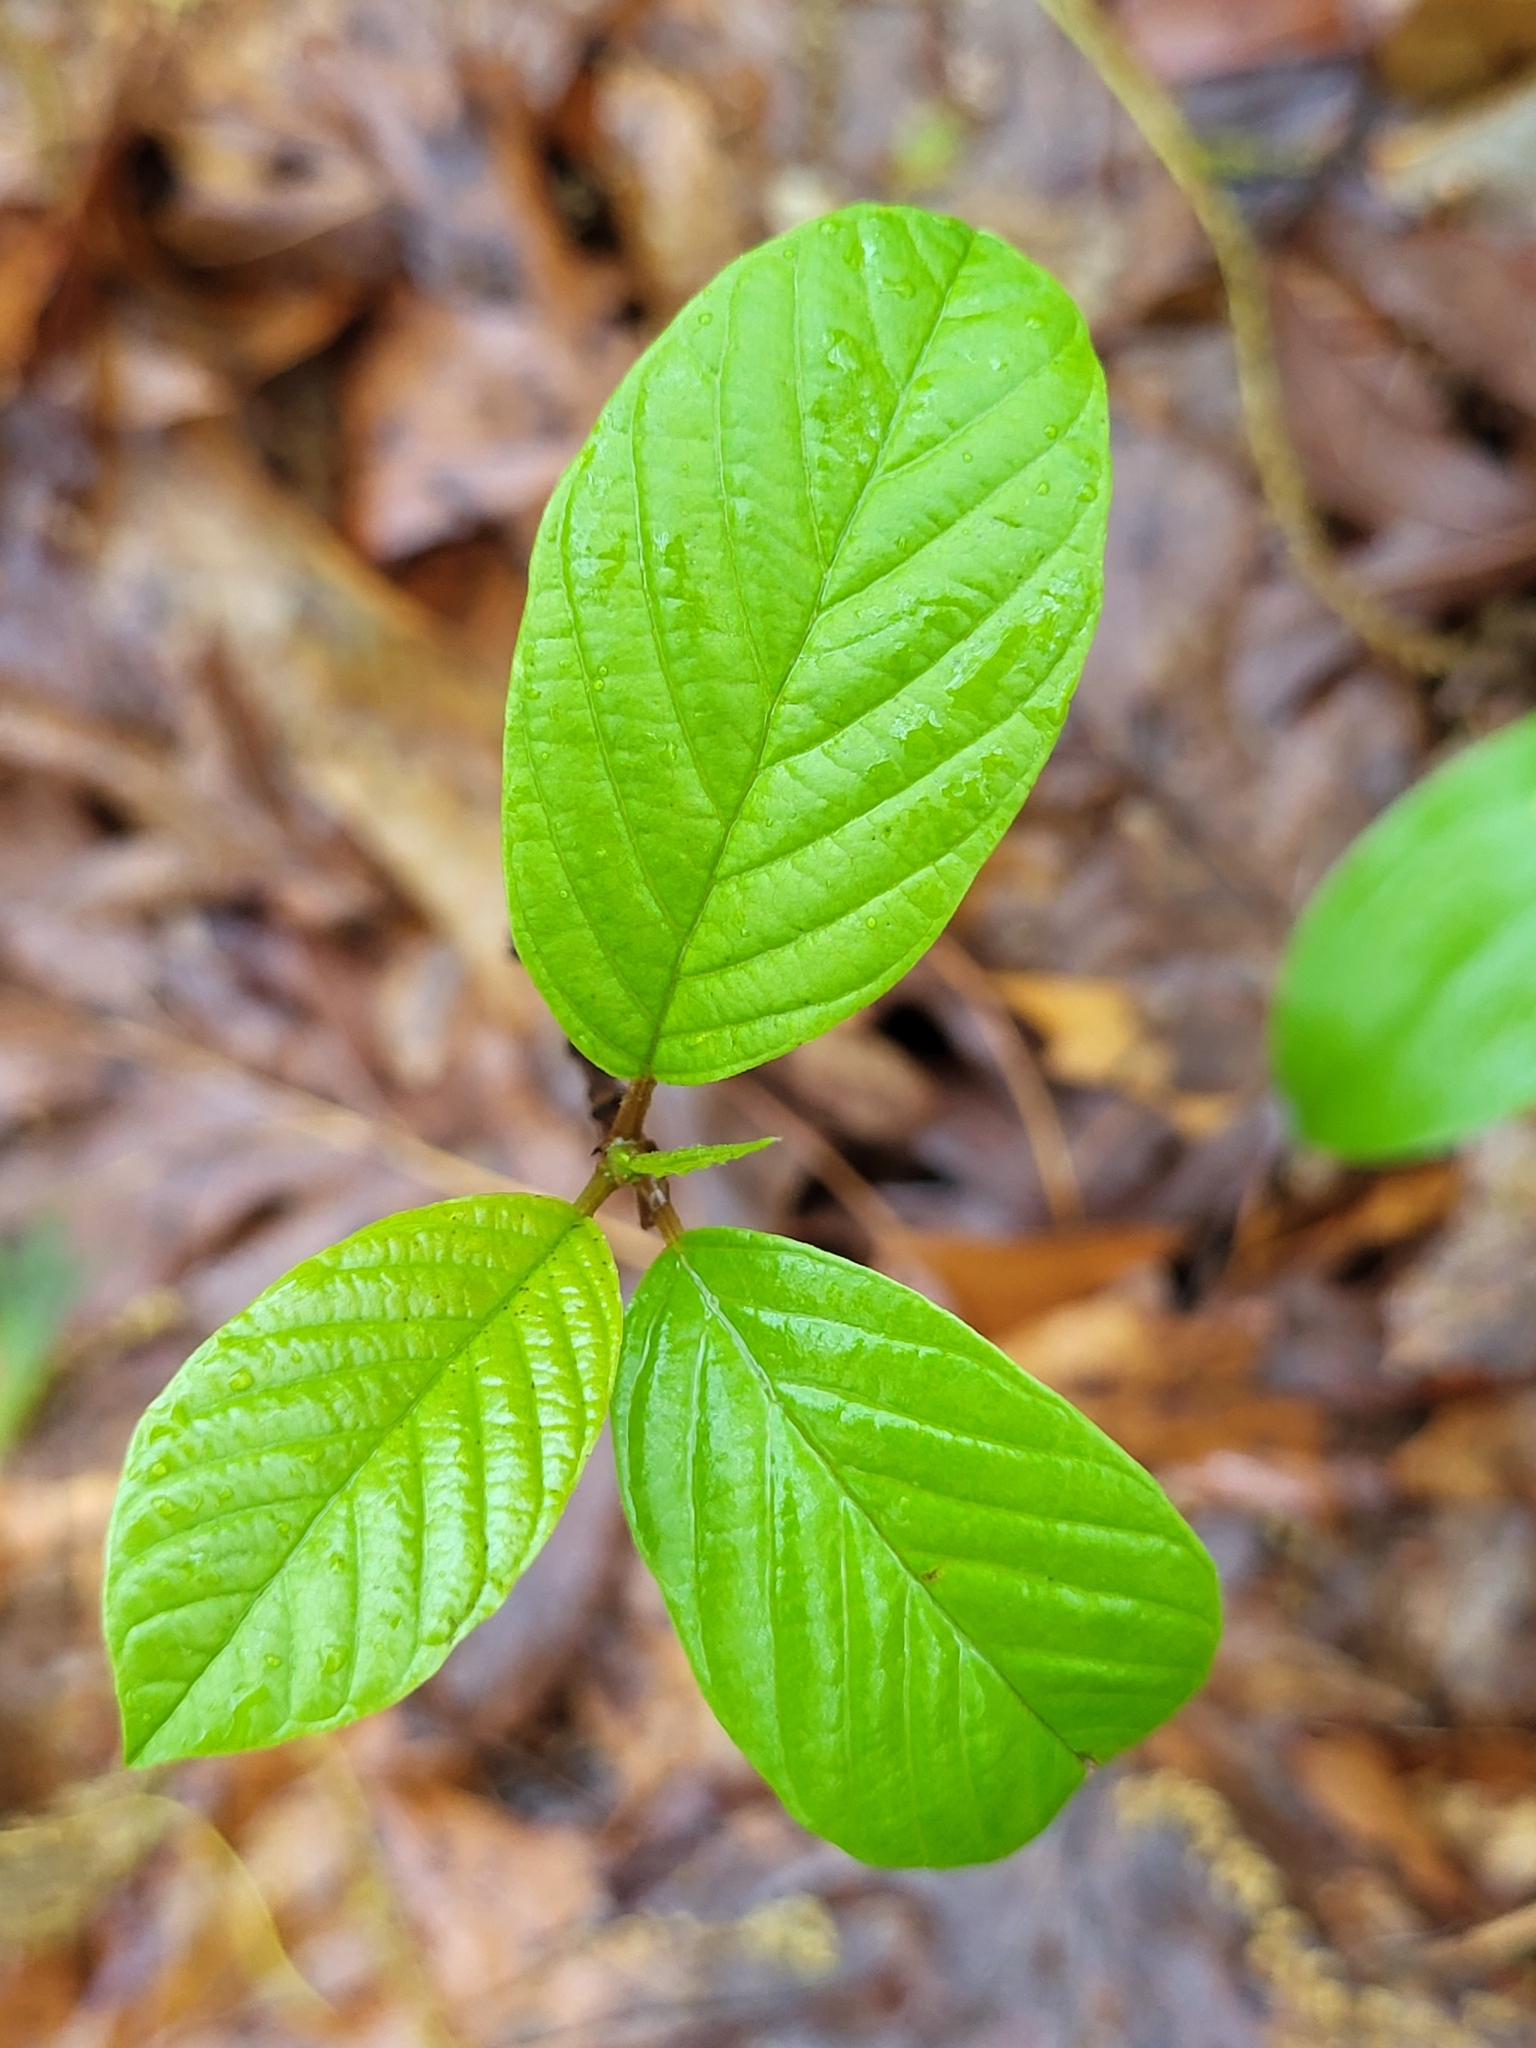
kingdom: Plantae
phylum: Tracheophyta
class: Magnoliopsida
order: Rosales
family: Rhamnaceae
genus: Frangula
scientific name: Frangula alnus
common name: Alder buckthorn
